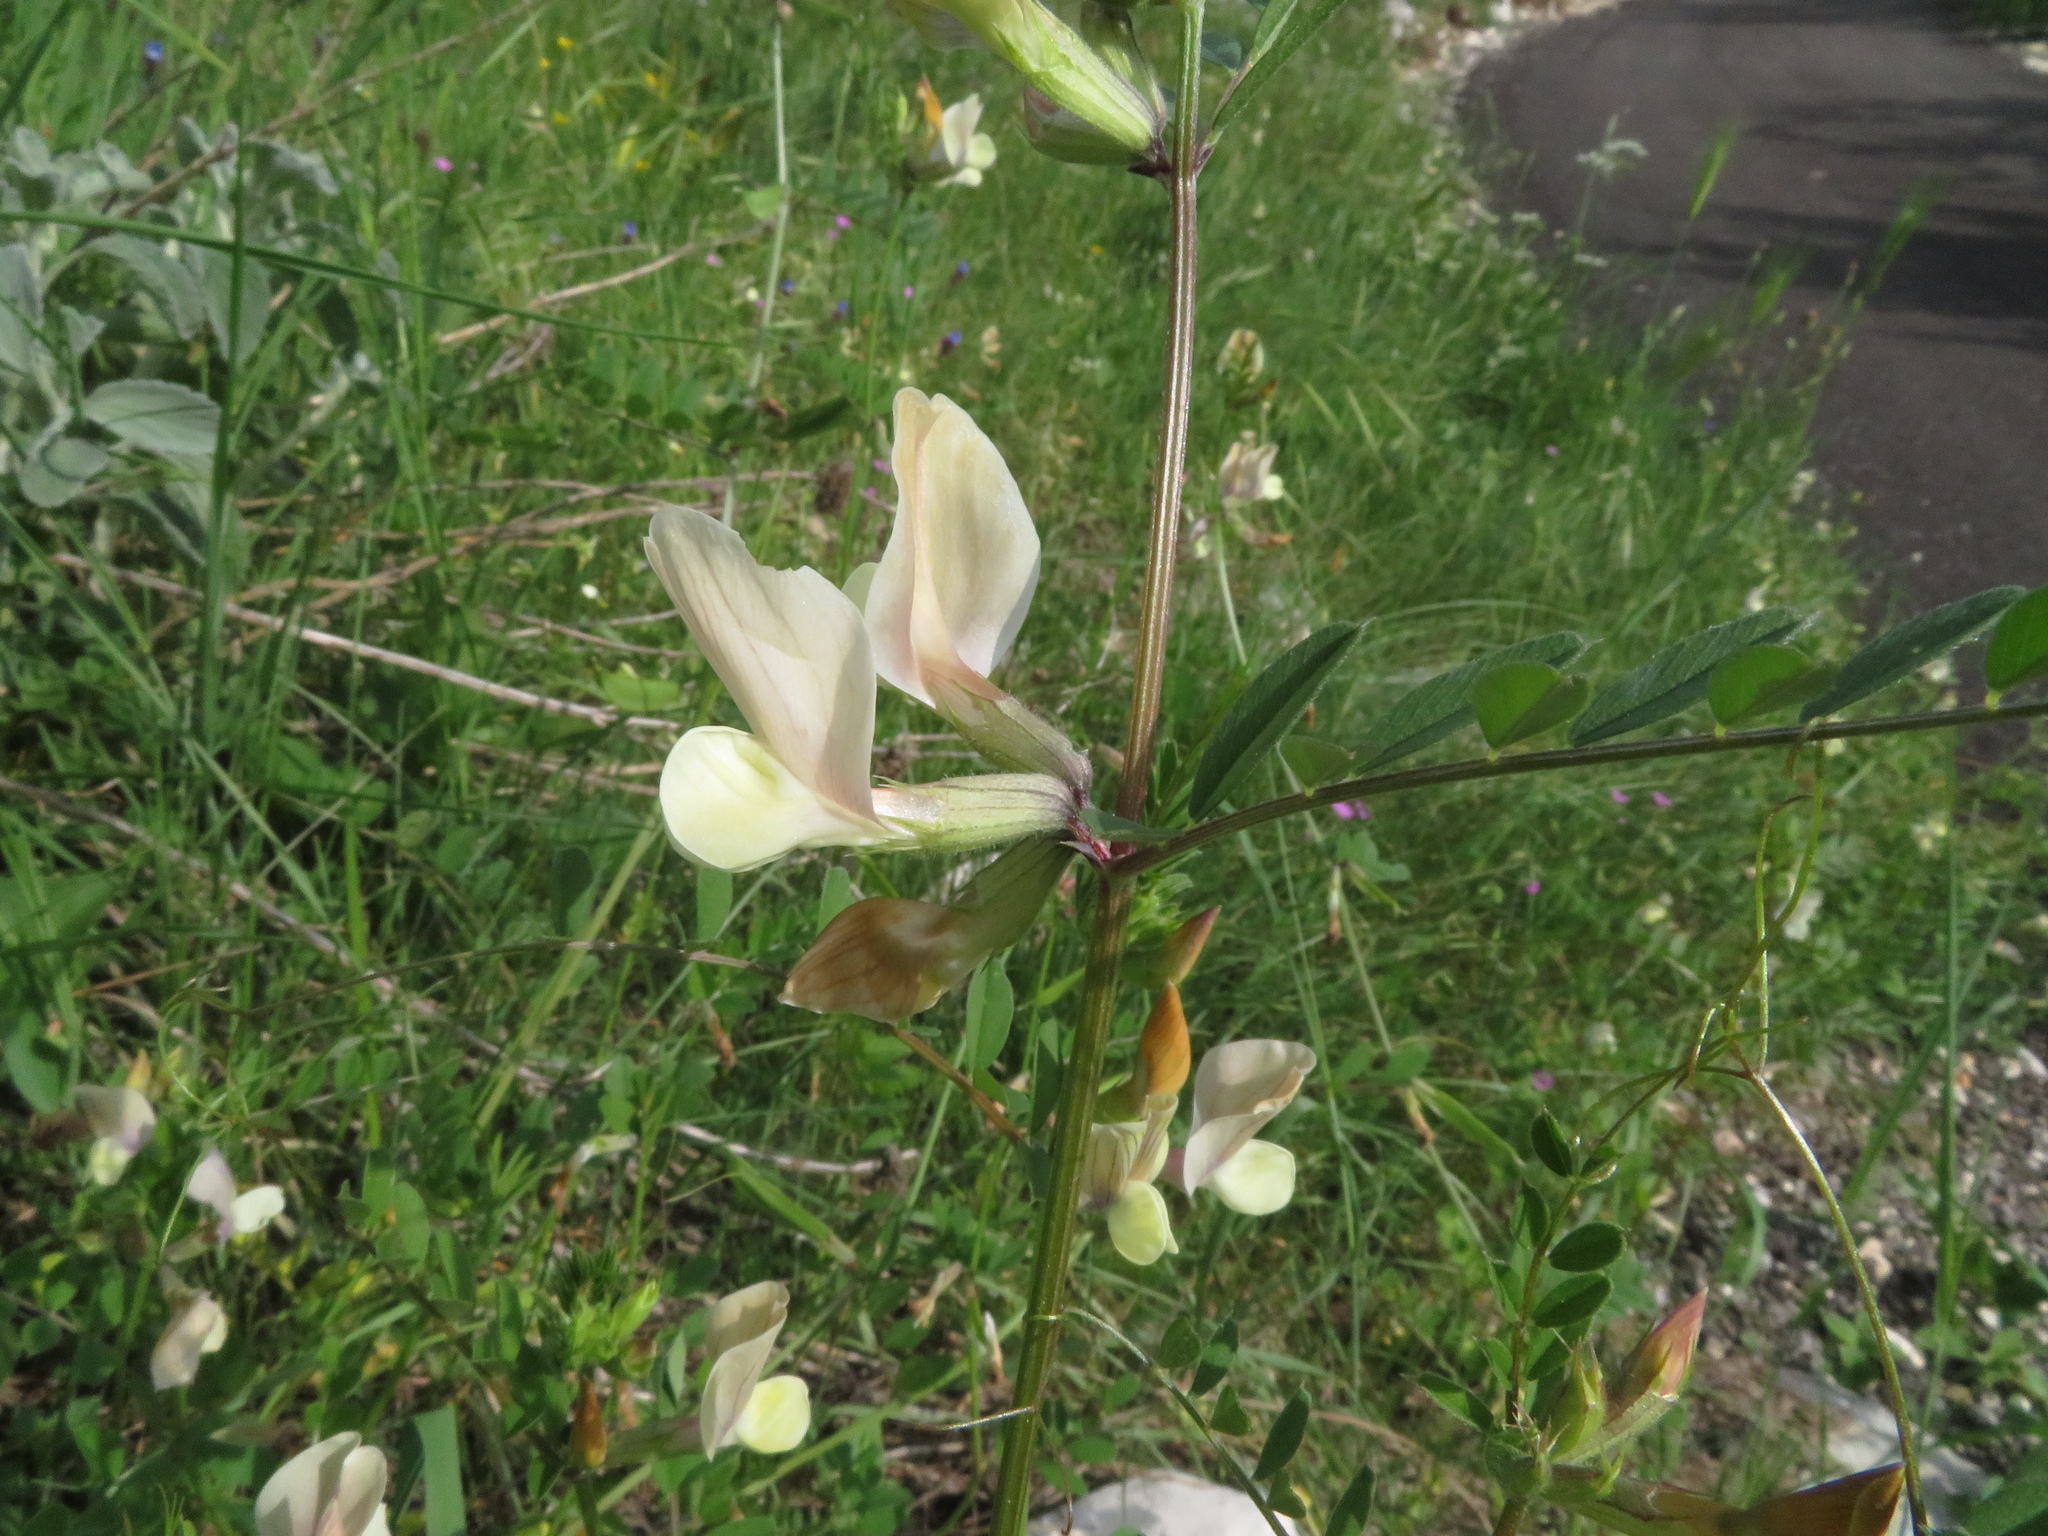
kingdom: Plantae
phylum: Tracheophyta
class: Magnoliopsida
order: Fabales
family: Fabaceae
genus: Vicia
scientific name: Vicia grandiflora
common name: Large yellow vetch
